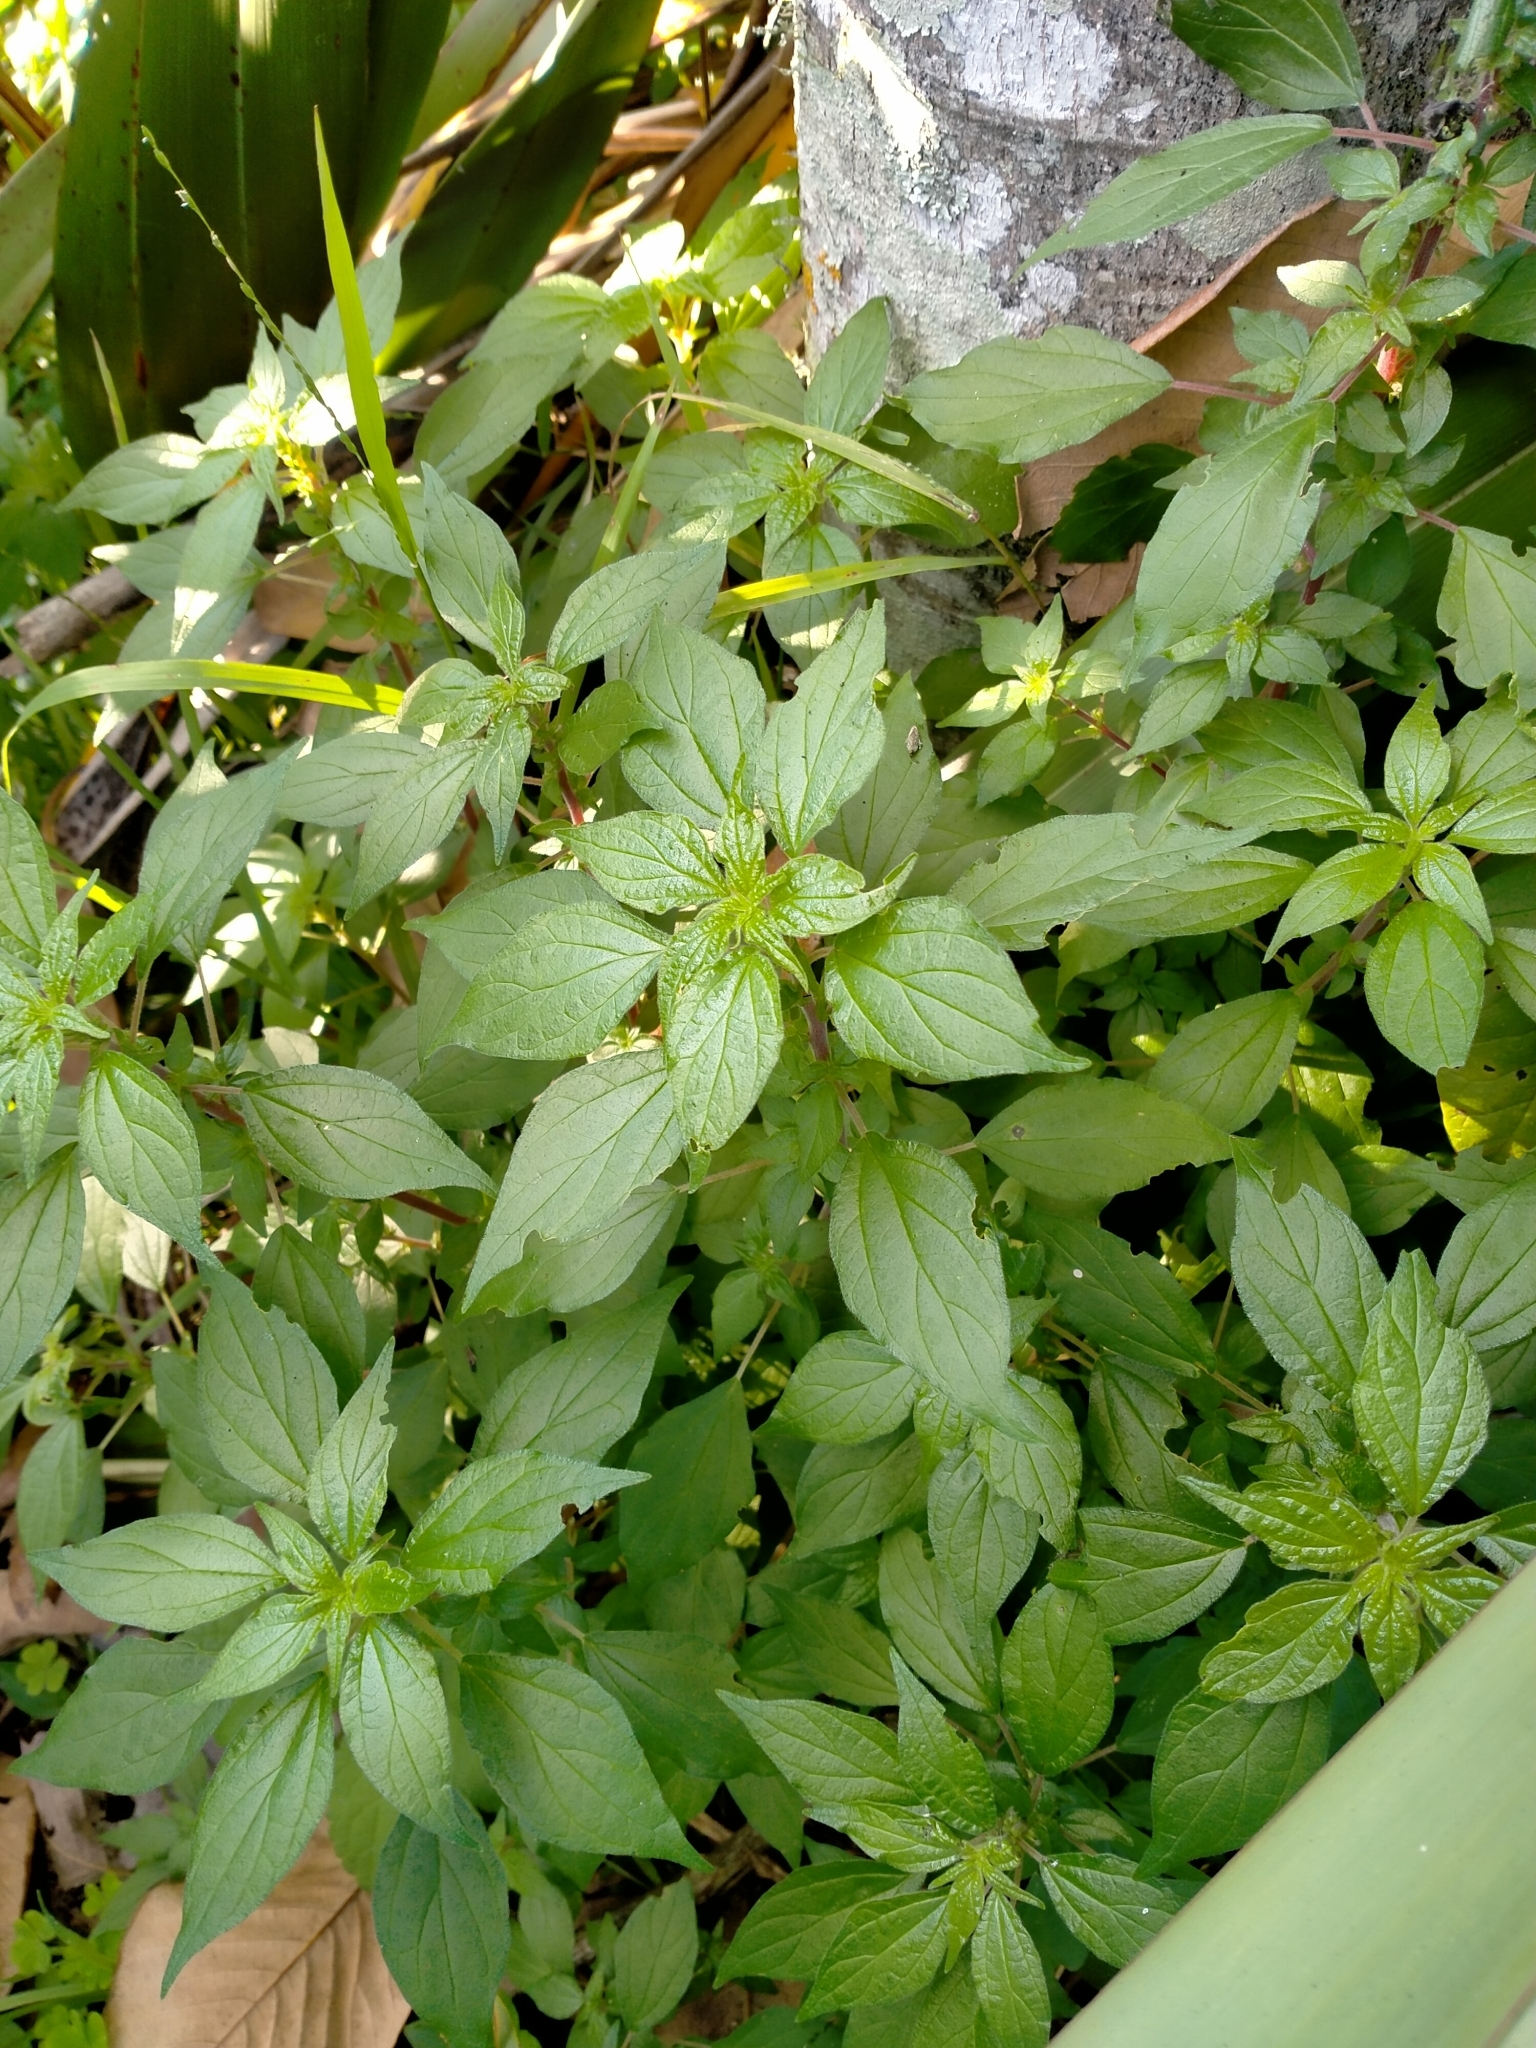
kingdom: Plantae
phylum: Tracheophyta
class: Magnoliopsida
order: Rosales
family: Urticaceae
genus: Parietaria
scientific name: Parietaria judaica
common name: Pellitory-of-the-wall
